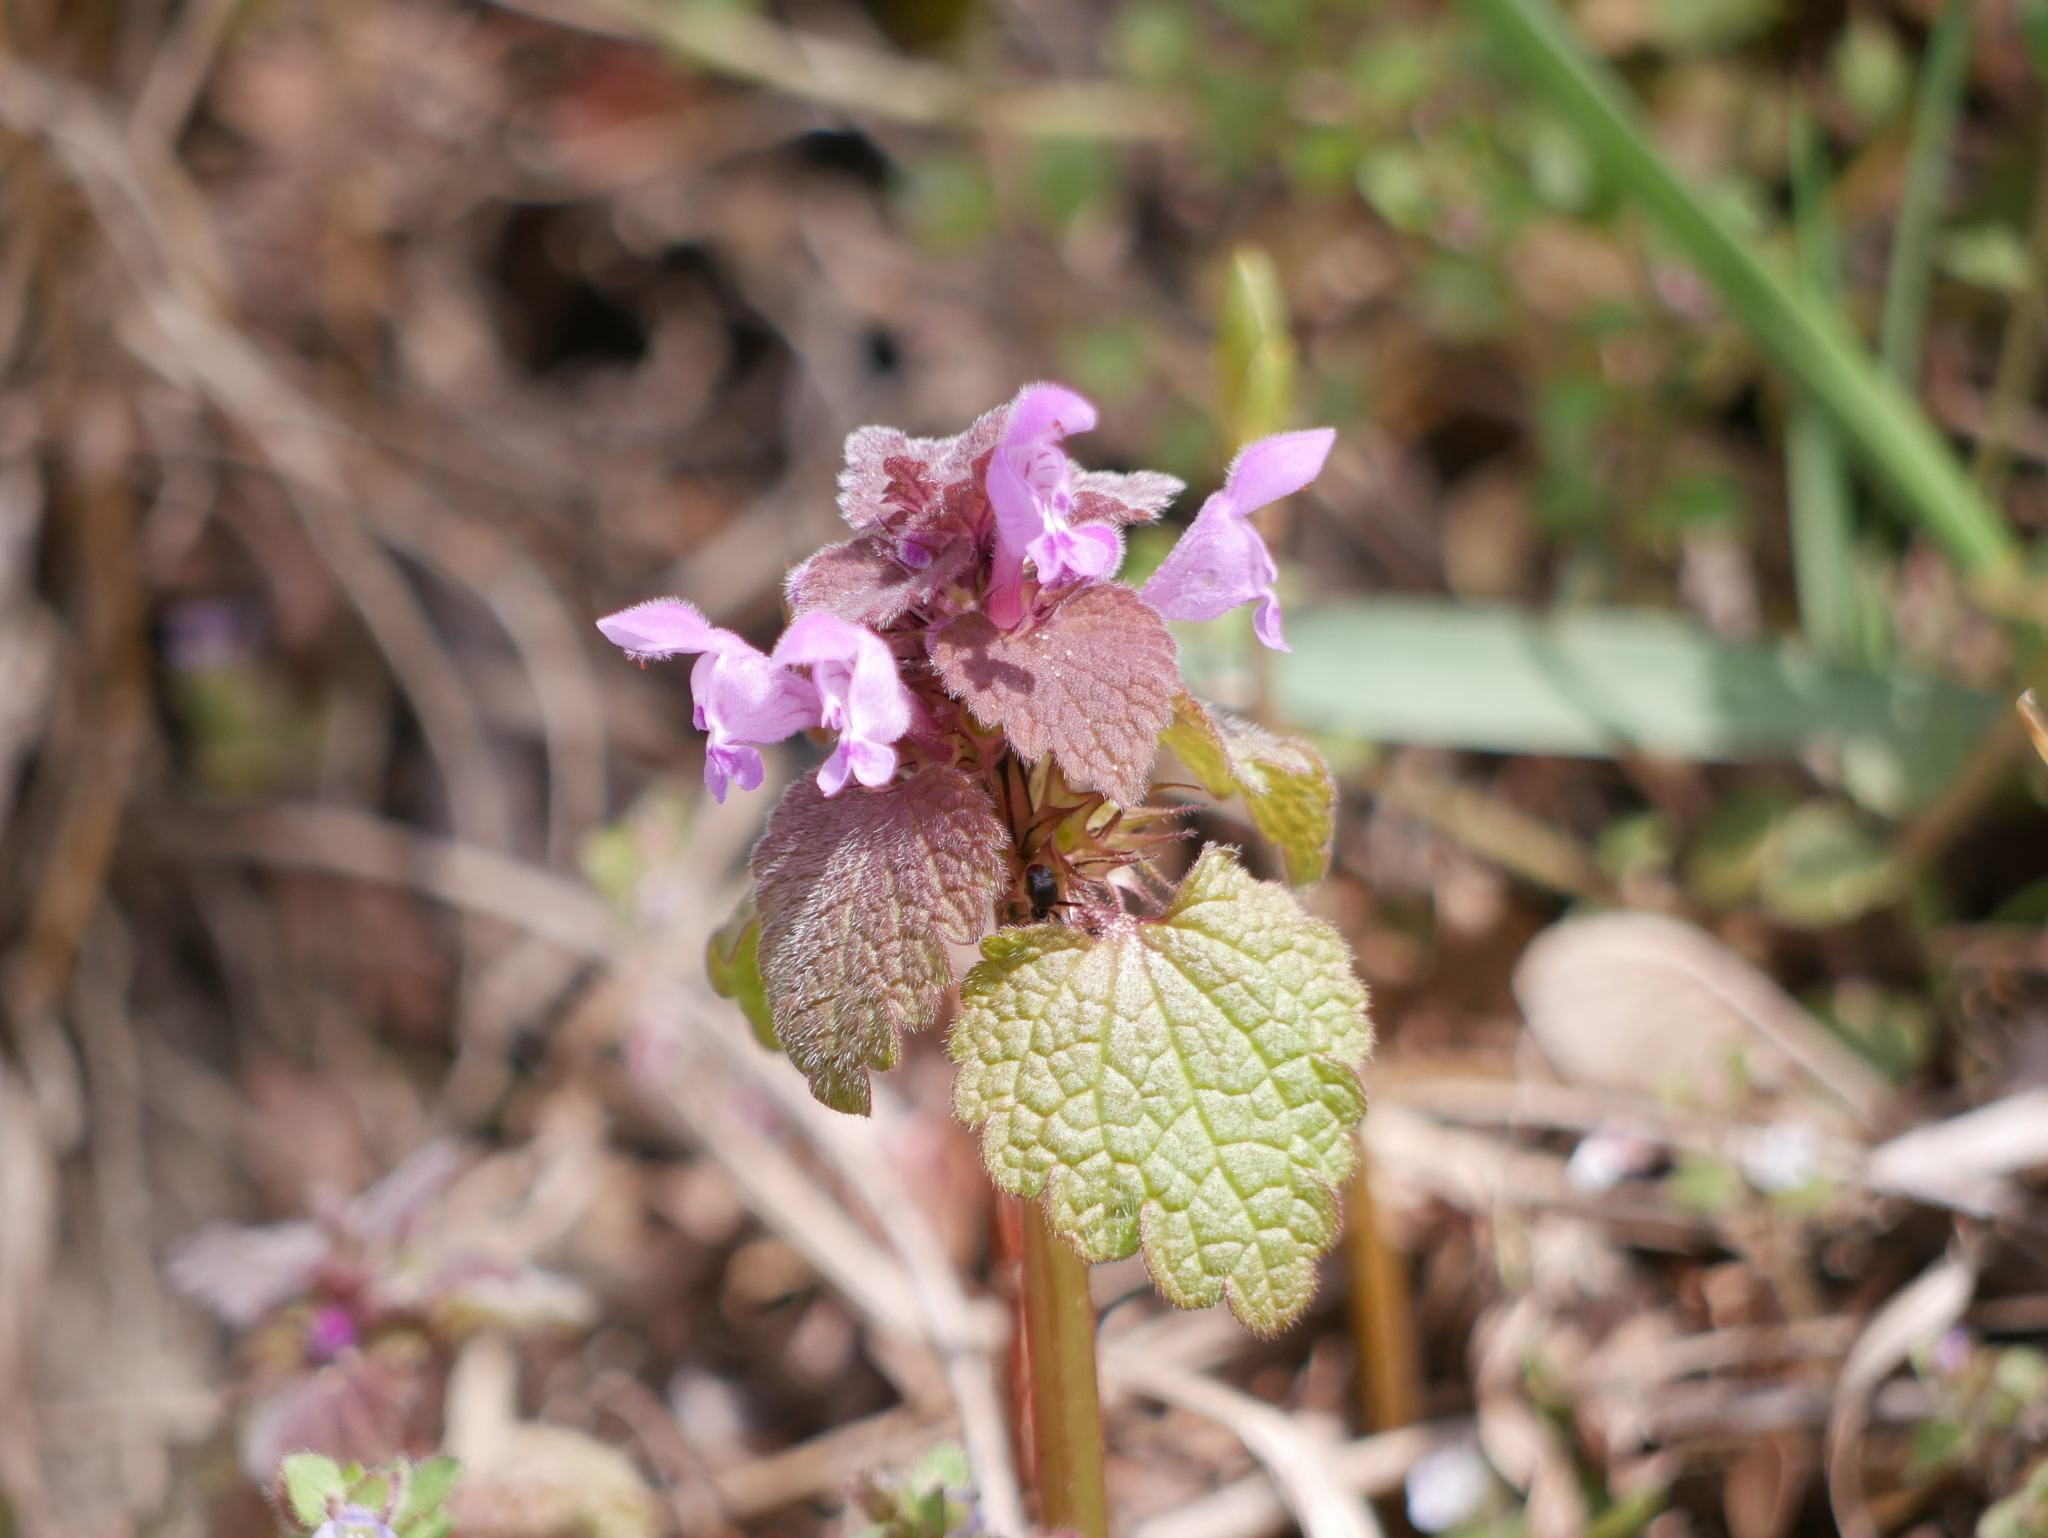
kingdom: Plantae
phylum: Tracheophyta
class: Magnoliopsida
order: Lamiales
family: Lamiaceae
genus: Lamium
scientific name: Lamium purpureum
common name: Red dead-nettle
